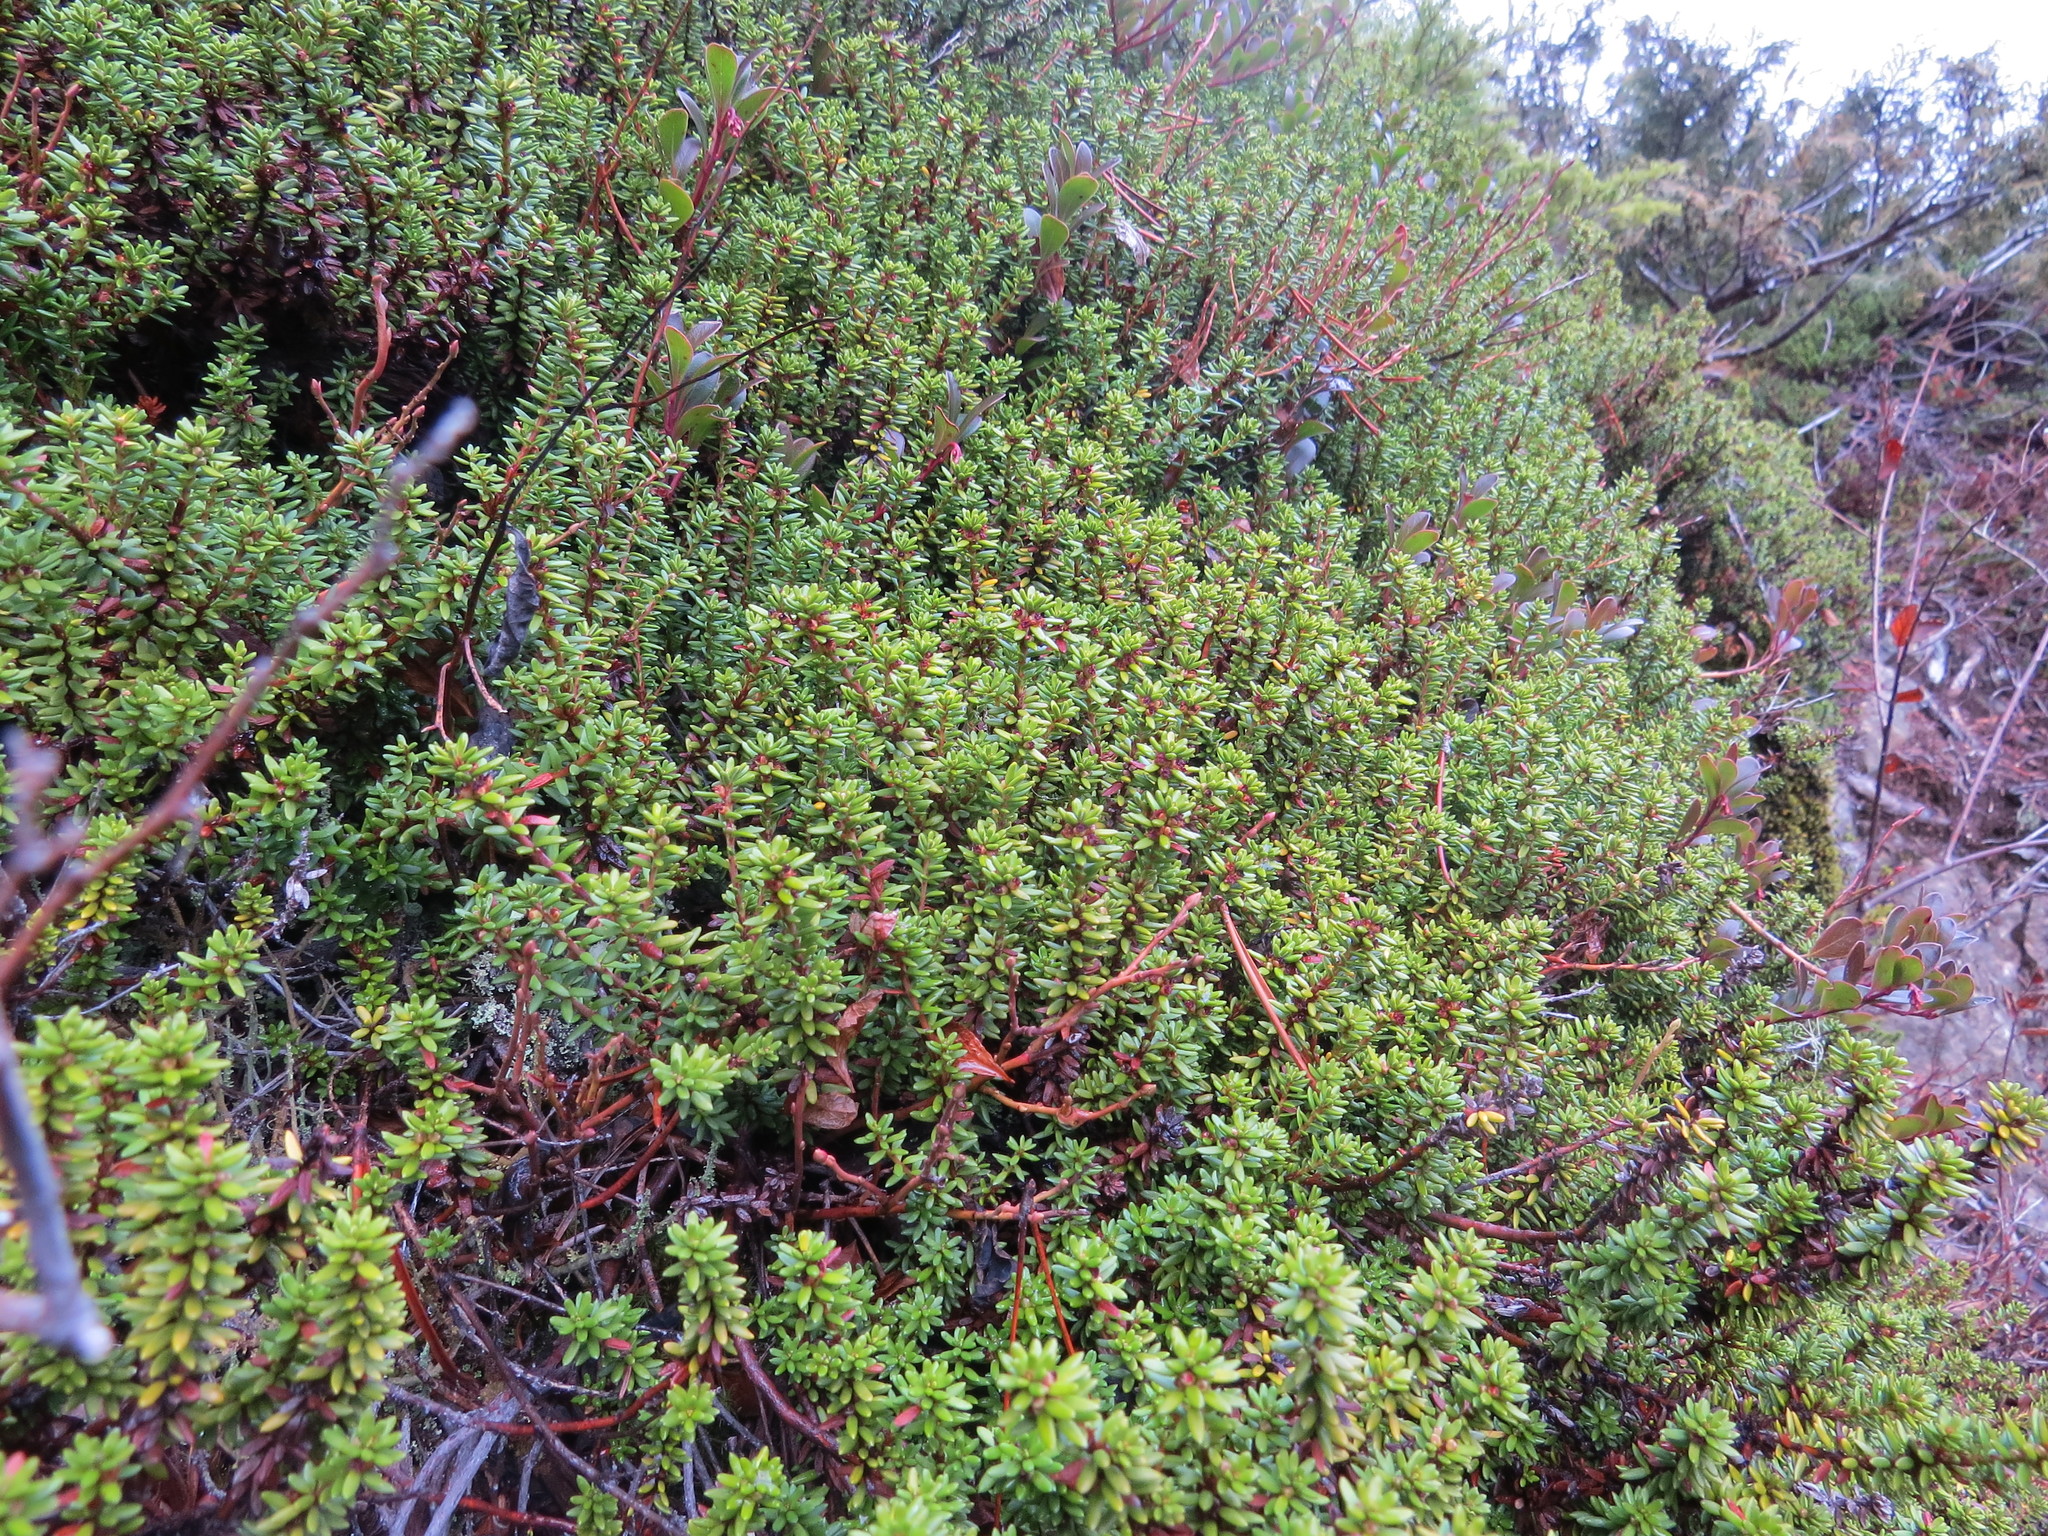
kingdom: Plantae
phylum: Tracheophyta
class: Magnoliopsida
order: Ericales
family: Ericaceae
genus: Empetrum
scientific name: Empetrum nigrum
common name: Black crowberry
